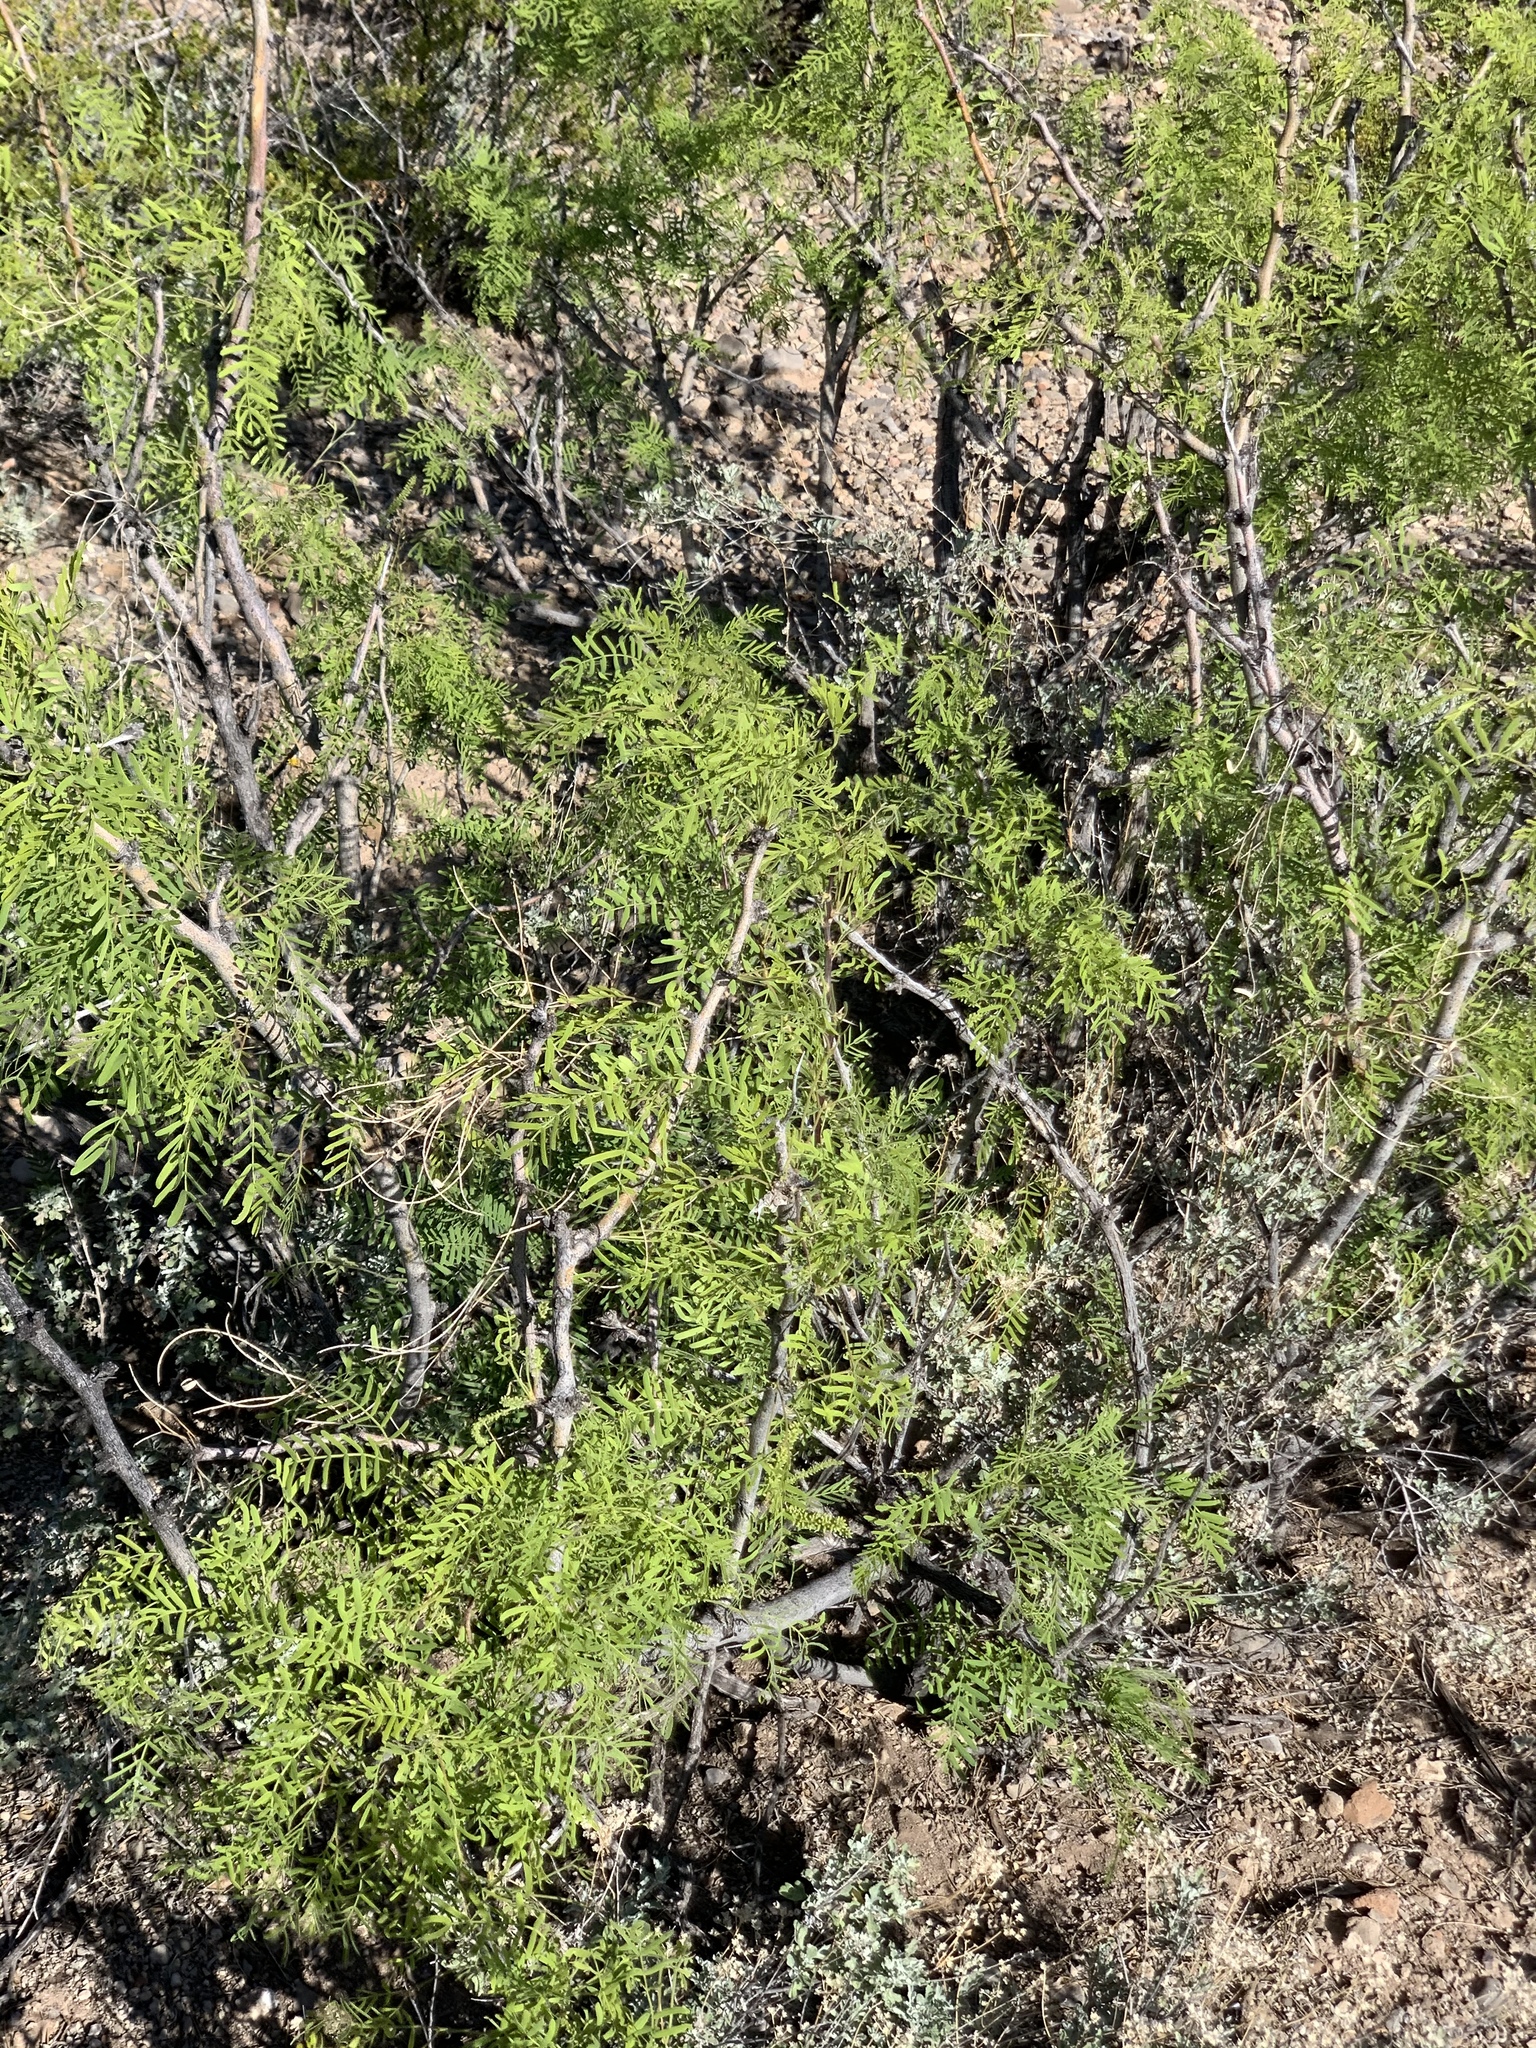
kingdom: Plantae
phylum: Tracheophyta
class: Magnoliopsida
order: Fabales
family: Fabaceae
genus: Prosopis
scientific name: Prosopis glandulosa
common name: Honey mesquite
